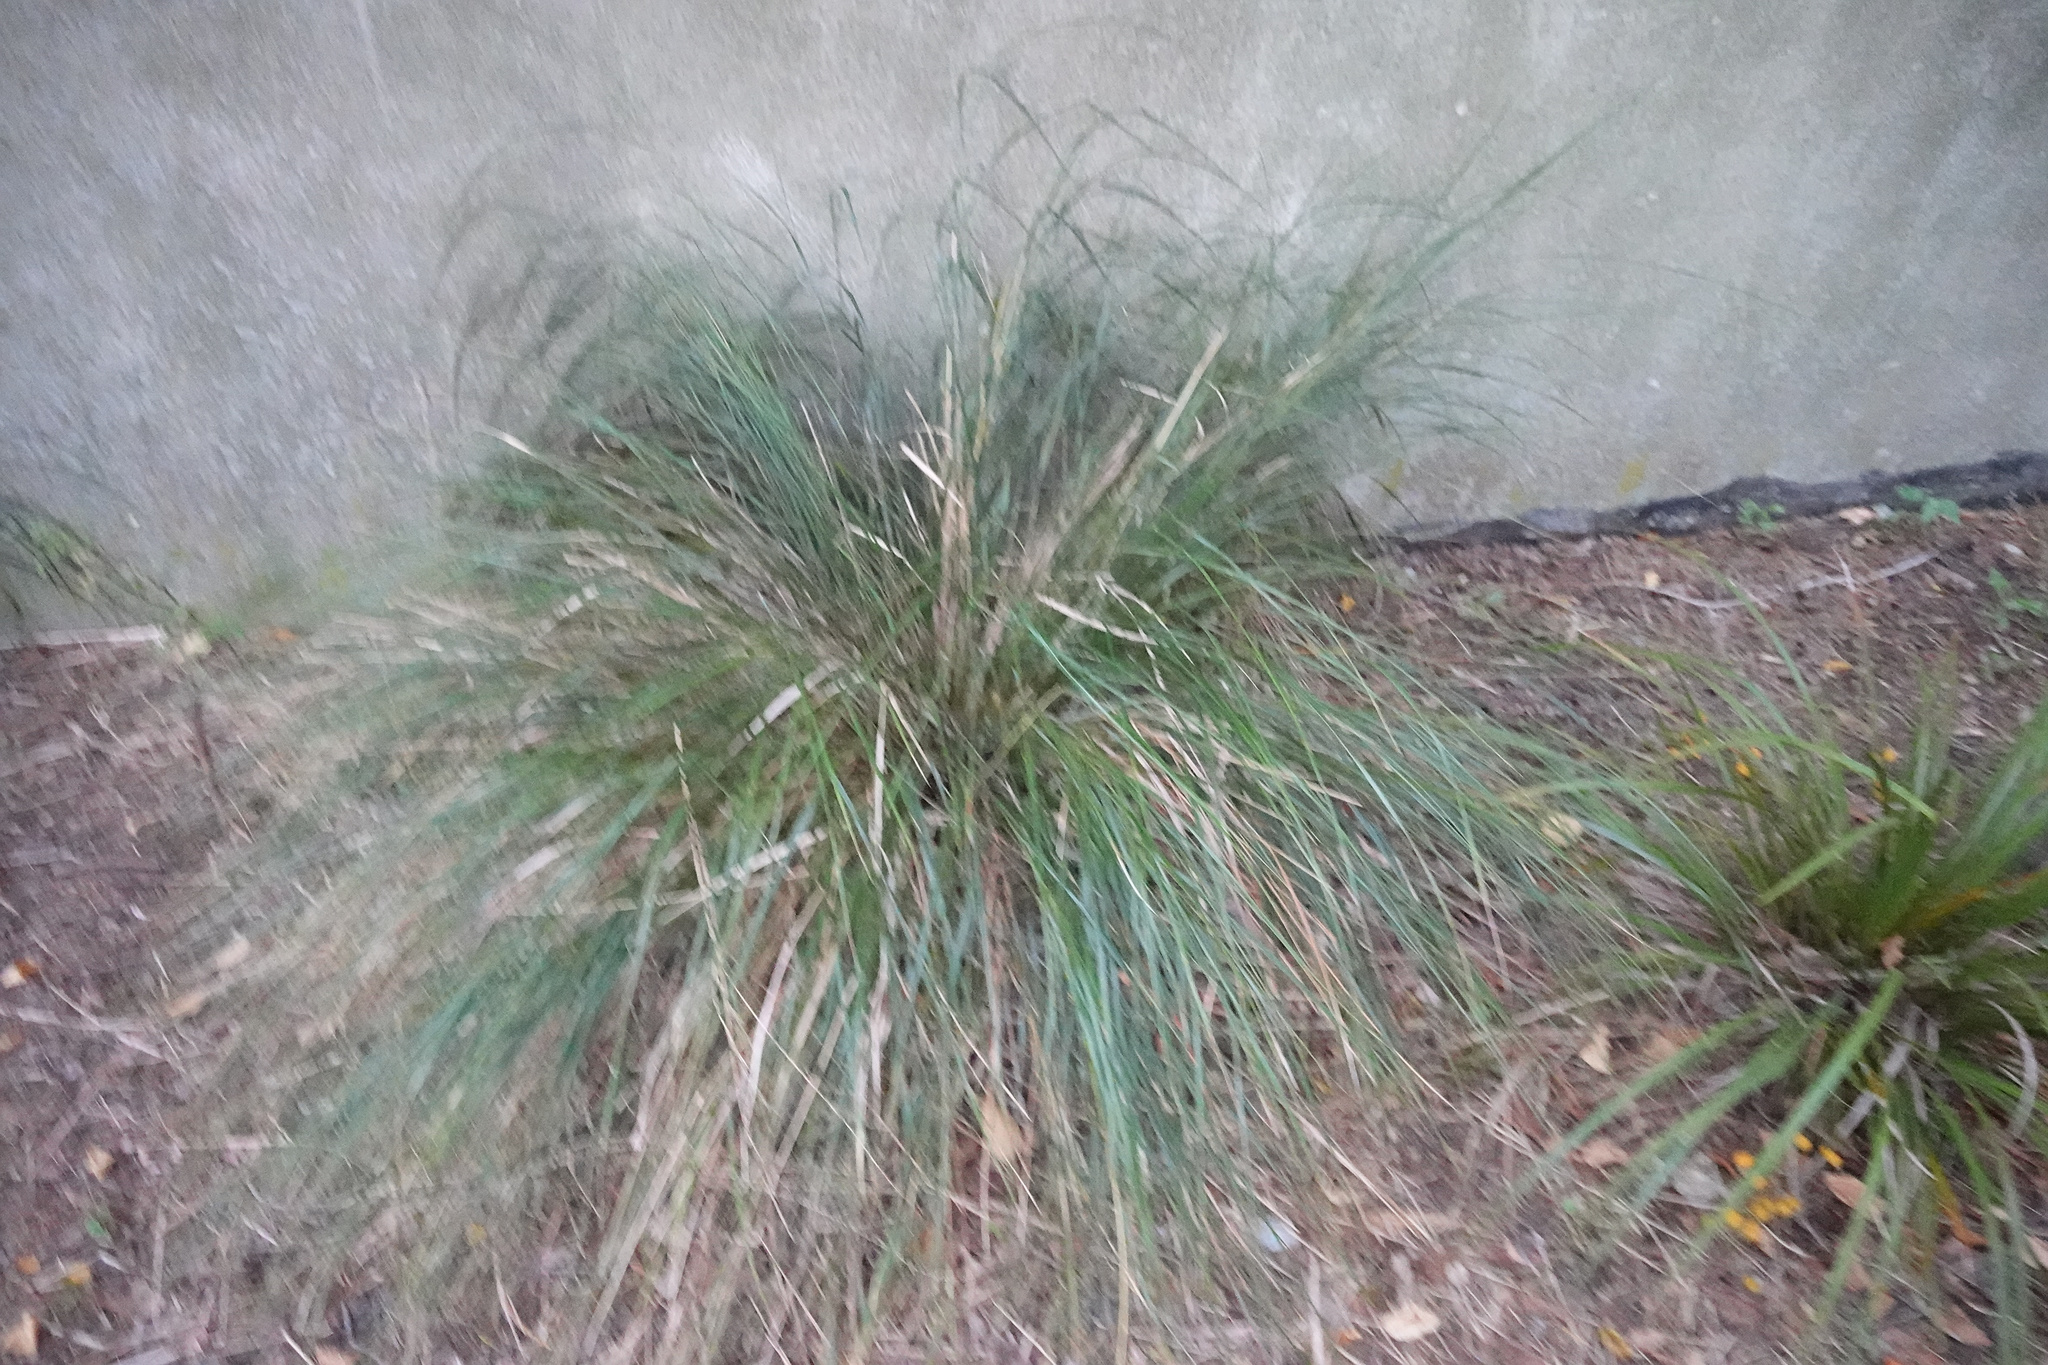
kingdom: Plantae
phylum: Tracheophyta
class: Liliopsida
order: Poales
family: Poaceae
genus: Anemanthele
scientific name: Anemanthele lessoniana
